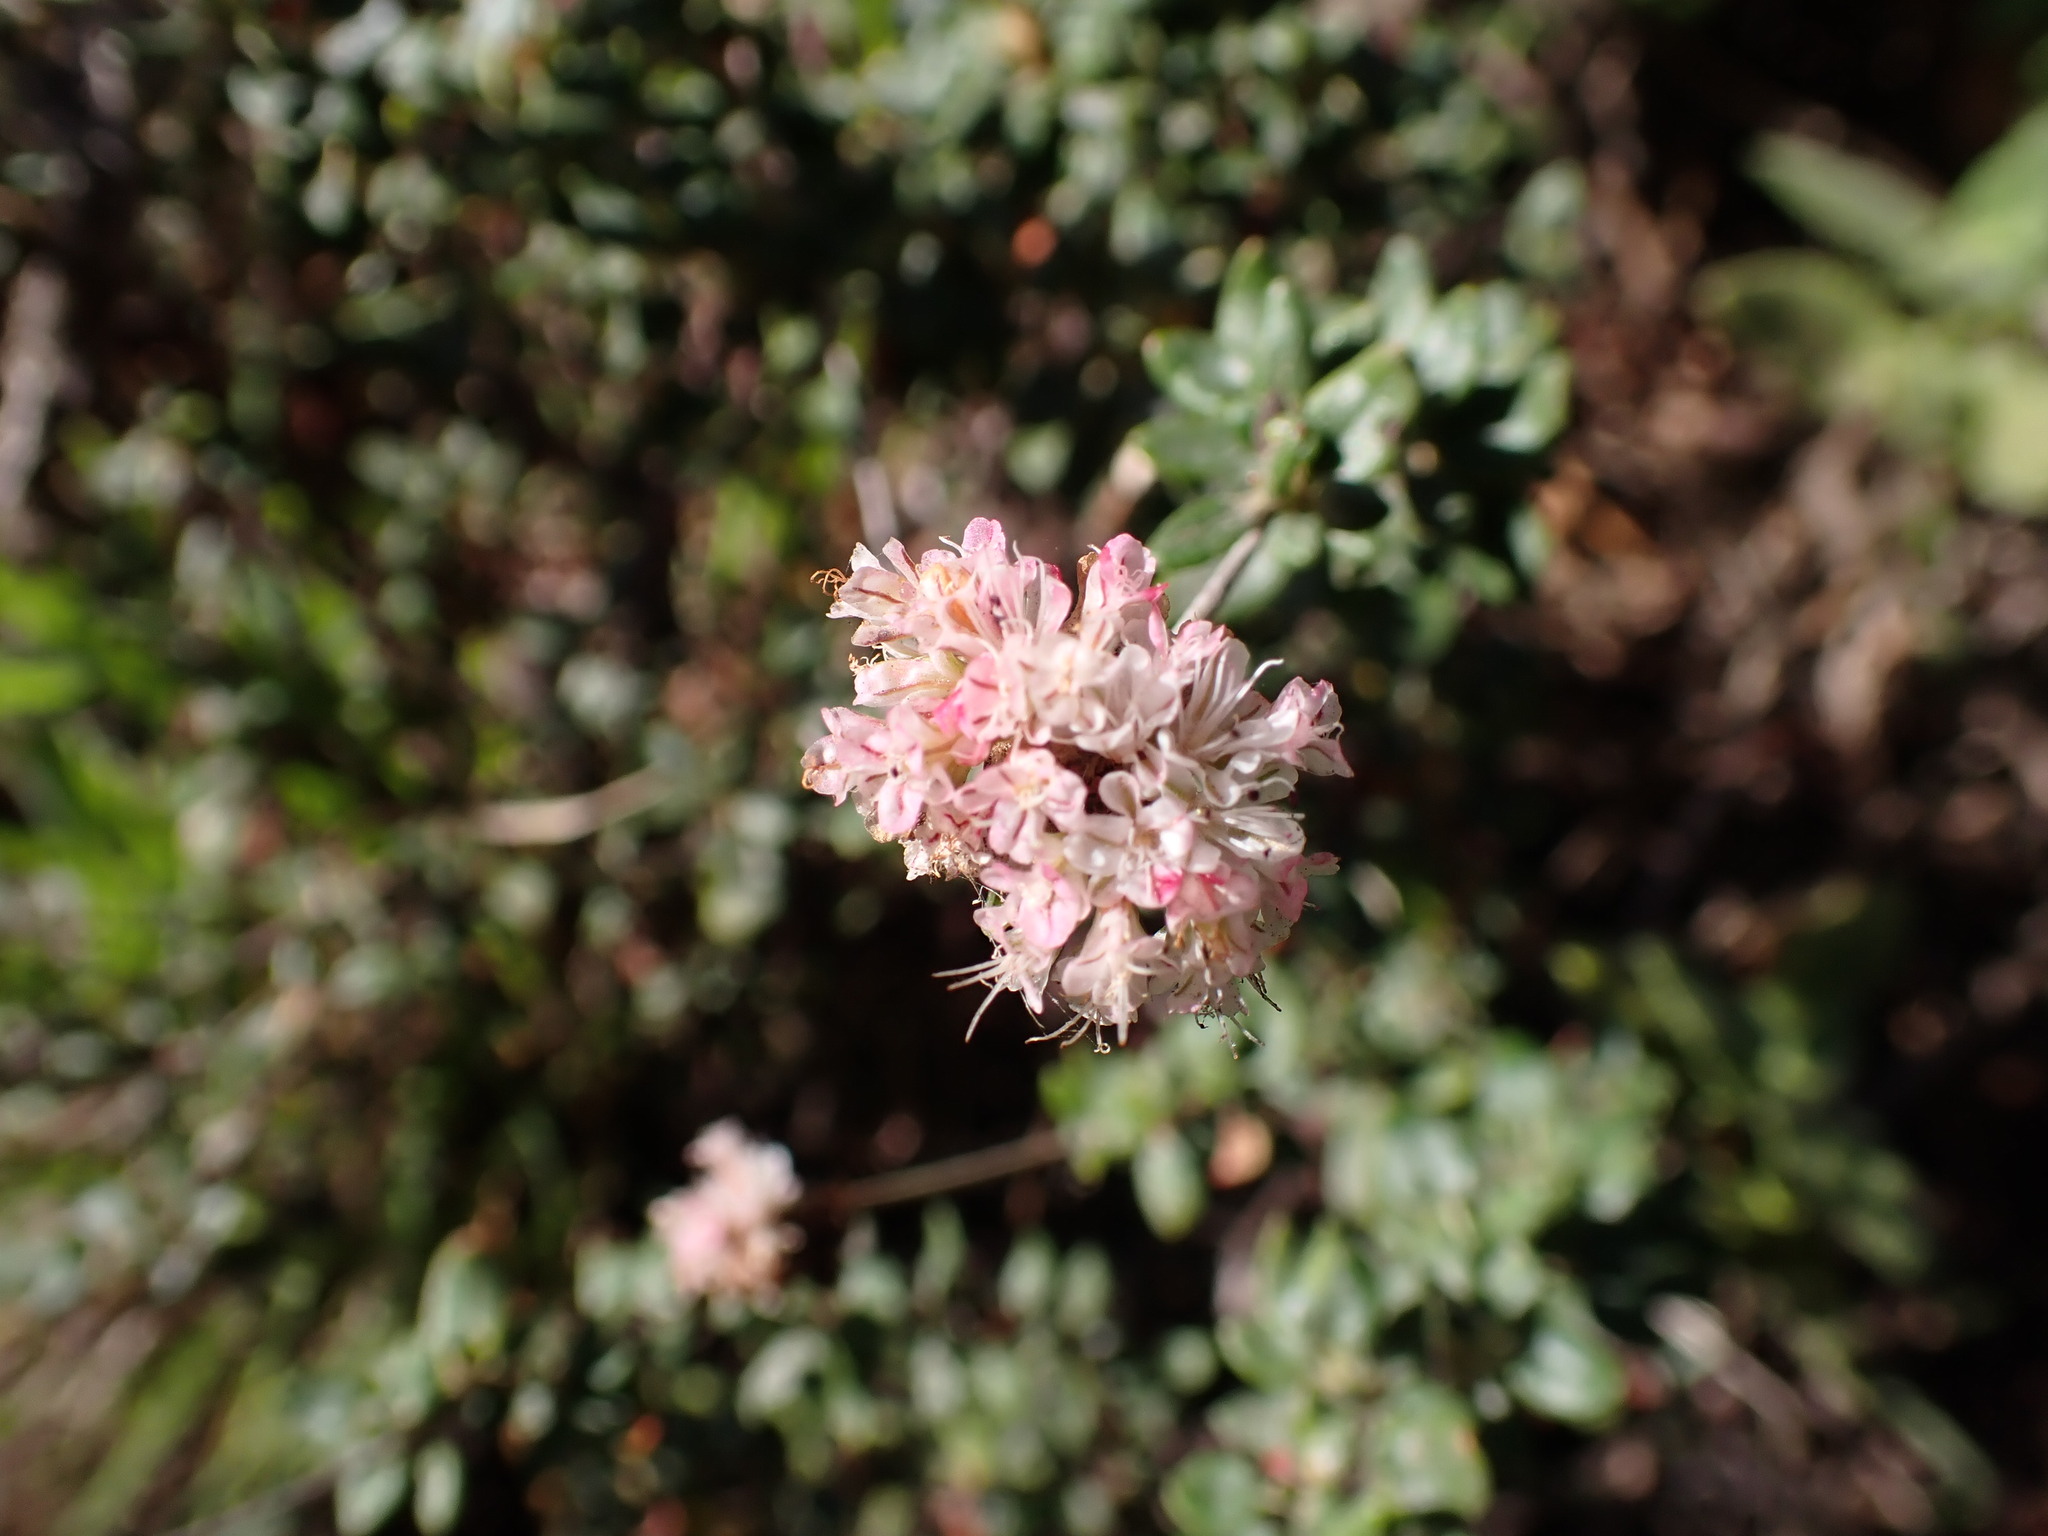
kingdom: Plantae
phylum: Tracheophyta
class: Magnoliopsida
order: Caryophyllales
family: Polygonaceae
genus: Eriogonum
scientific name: Eriogonum parvifolium
